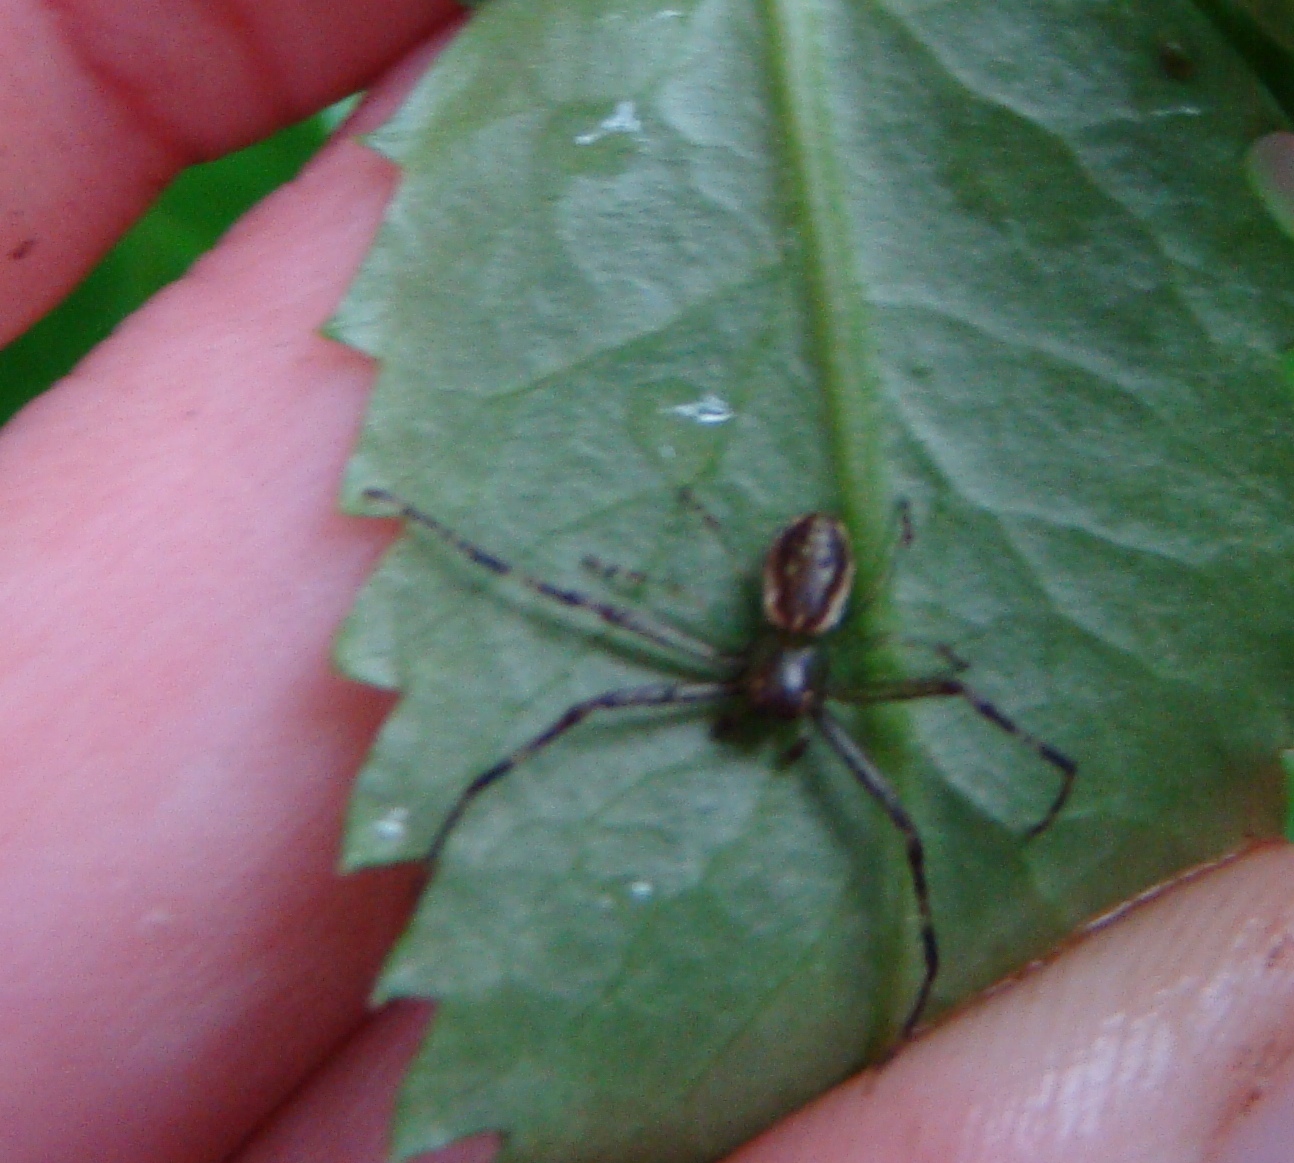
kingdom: Animalia
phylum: Arthropoda
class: Arachnida
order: Araneae
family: Thomisidae
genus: Diaea
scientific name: Diaea ambara
